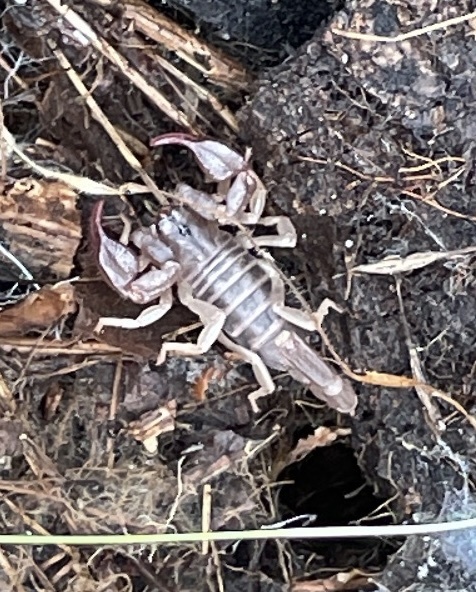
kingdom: Animalia
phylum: Arthropoda
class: Arachnida
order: Scorpiones
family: Chactidae
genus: Uroctonus
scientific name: Uroctonus mordax
